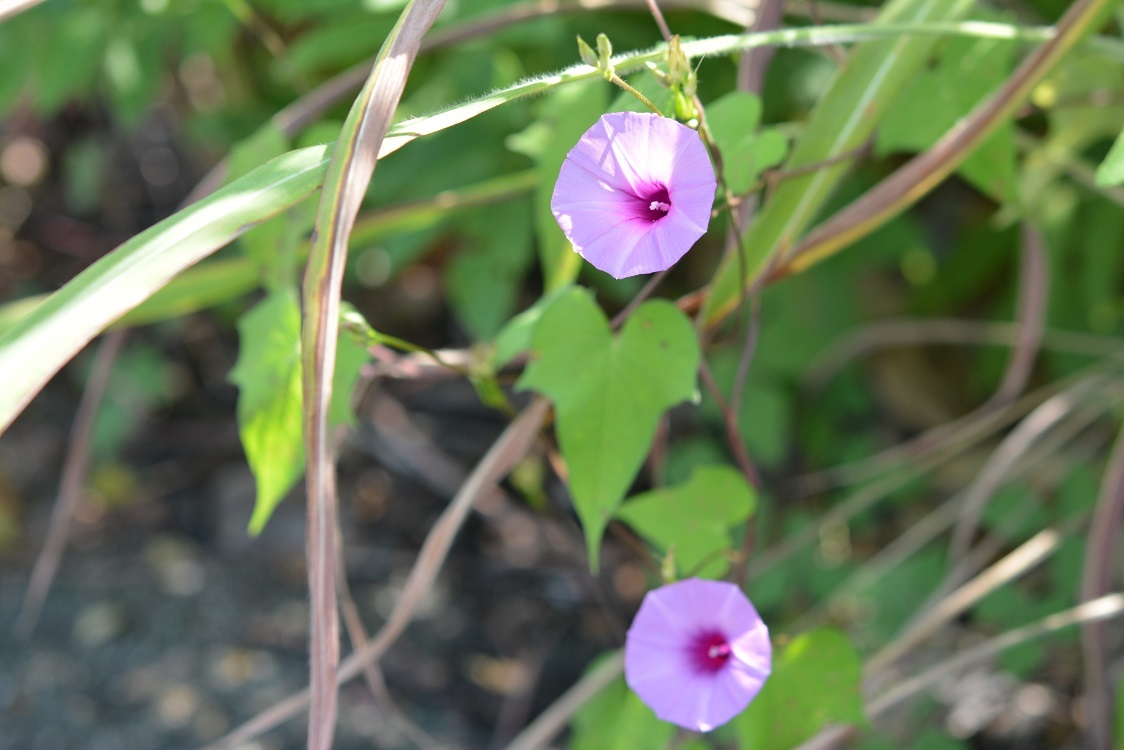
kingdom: Plantae
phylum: Tracheophyta
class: Magnoliopsida
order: Solanales
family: Convolvulaceae
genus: Ipomoea
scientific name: Ipomoea trifida
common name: Cotton morningglory
